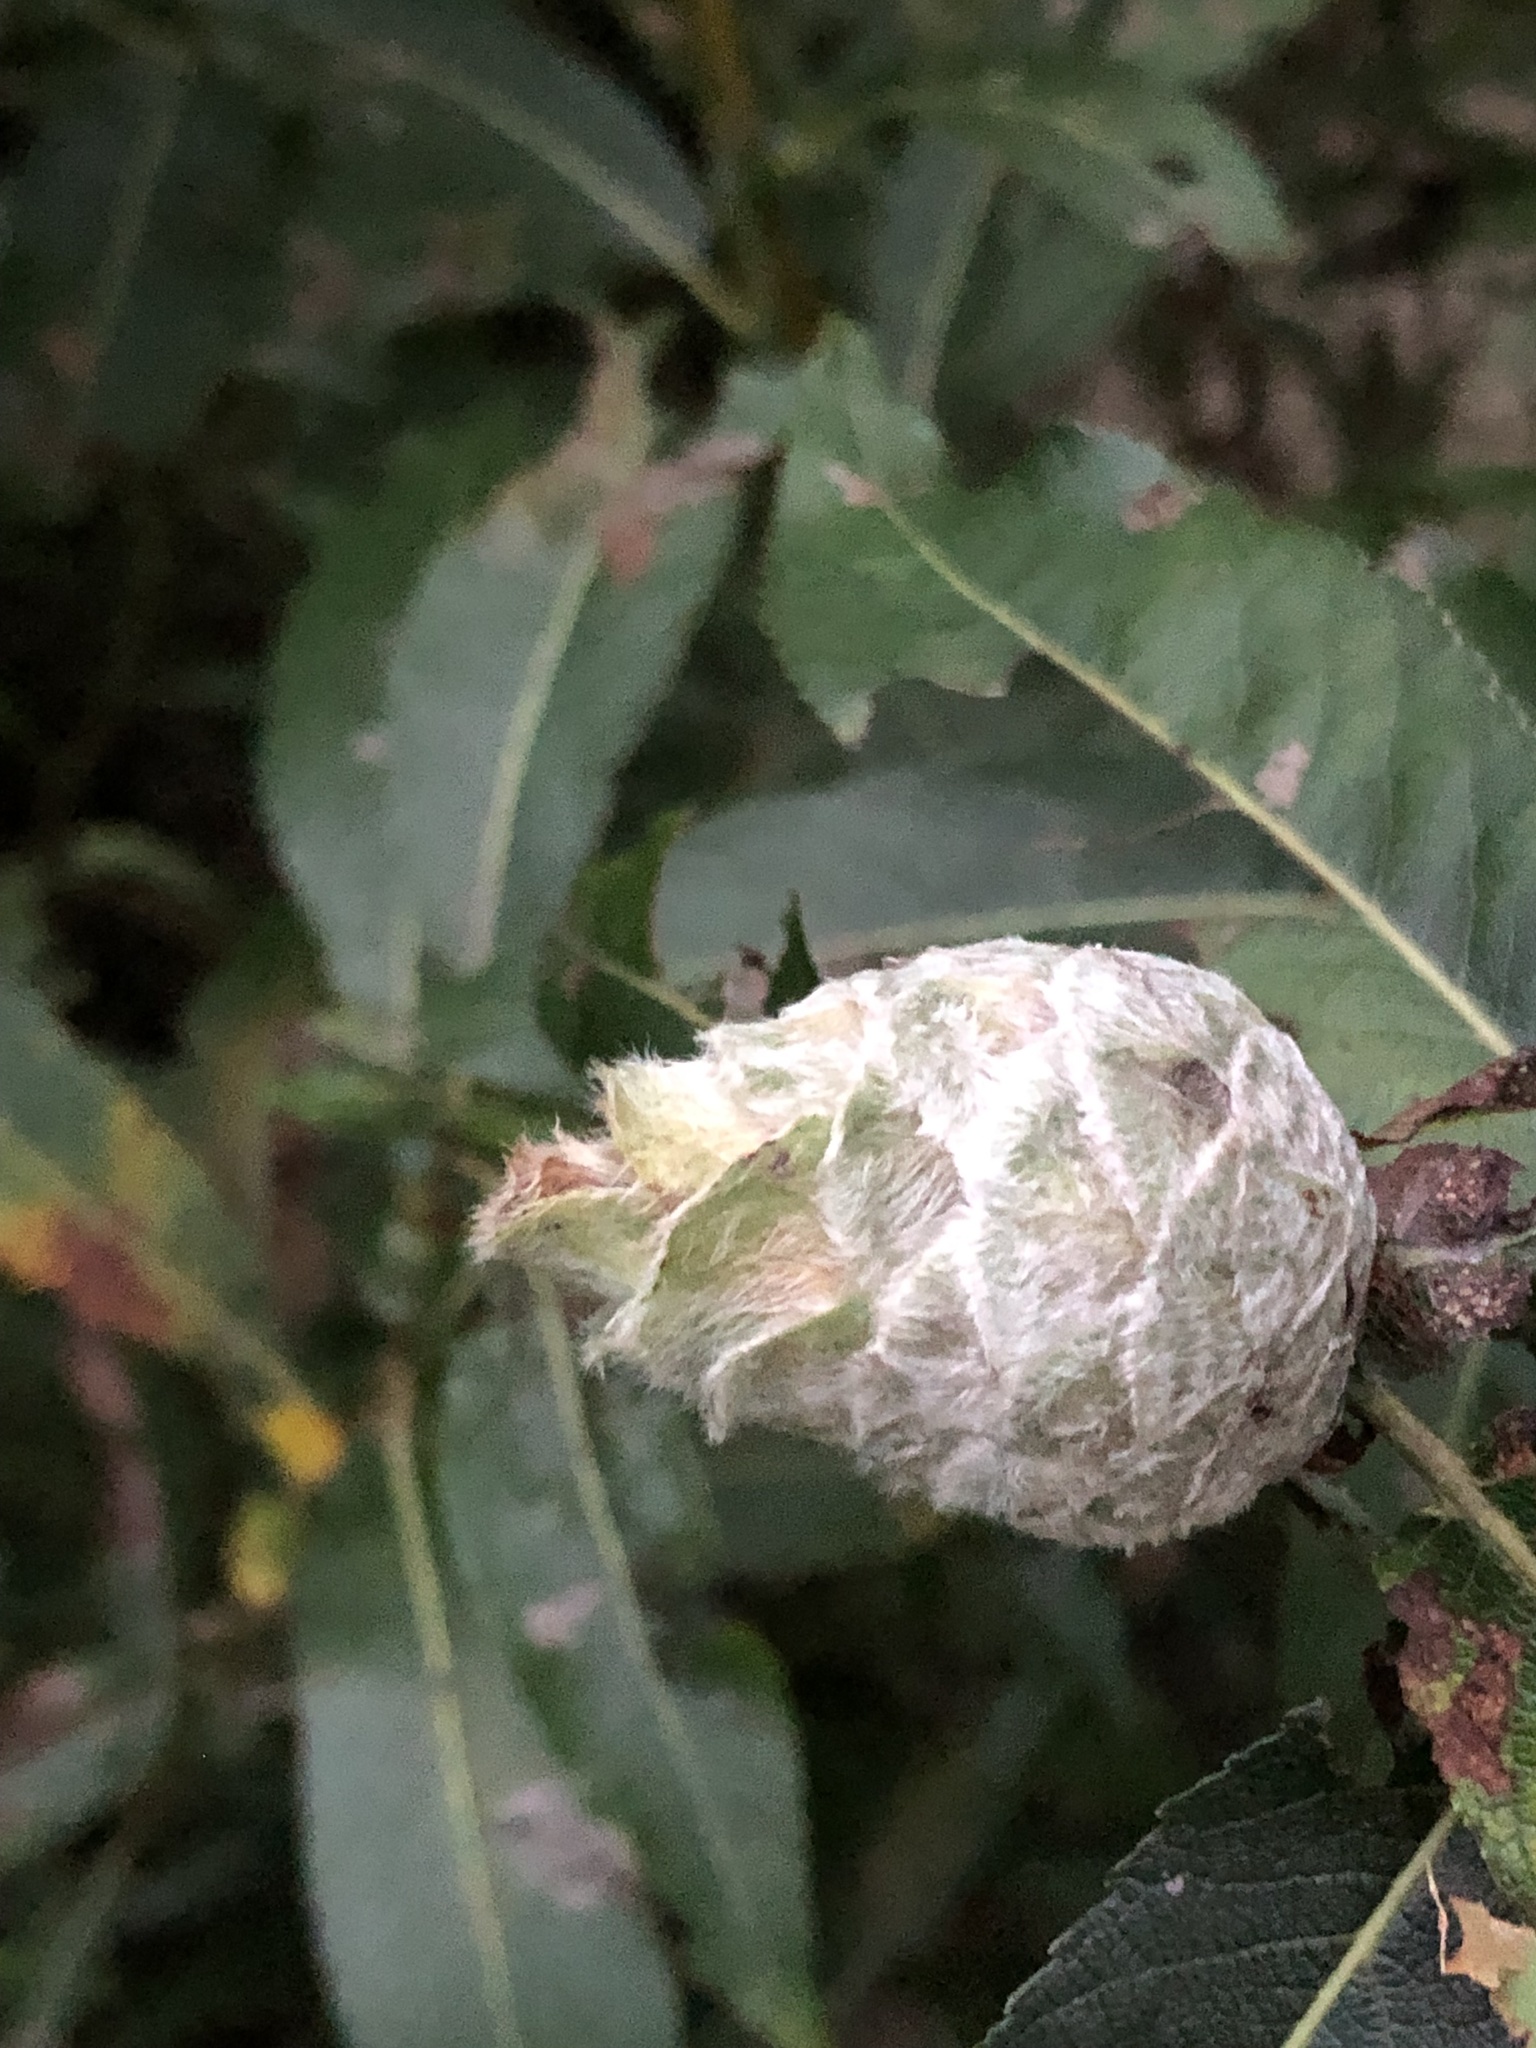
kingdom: Animalia
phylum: Arthropoda
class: Insecta
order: Diptera
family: Cecidomyiidae
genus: Rabdophaga
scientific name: Rabdophaga strobiloides
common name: Willow pinecone gall midge
